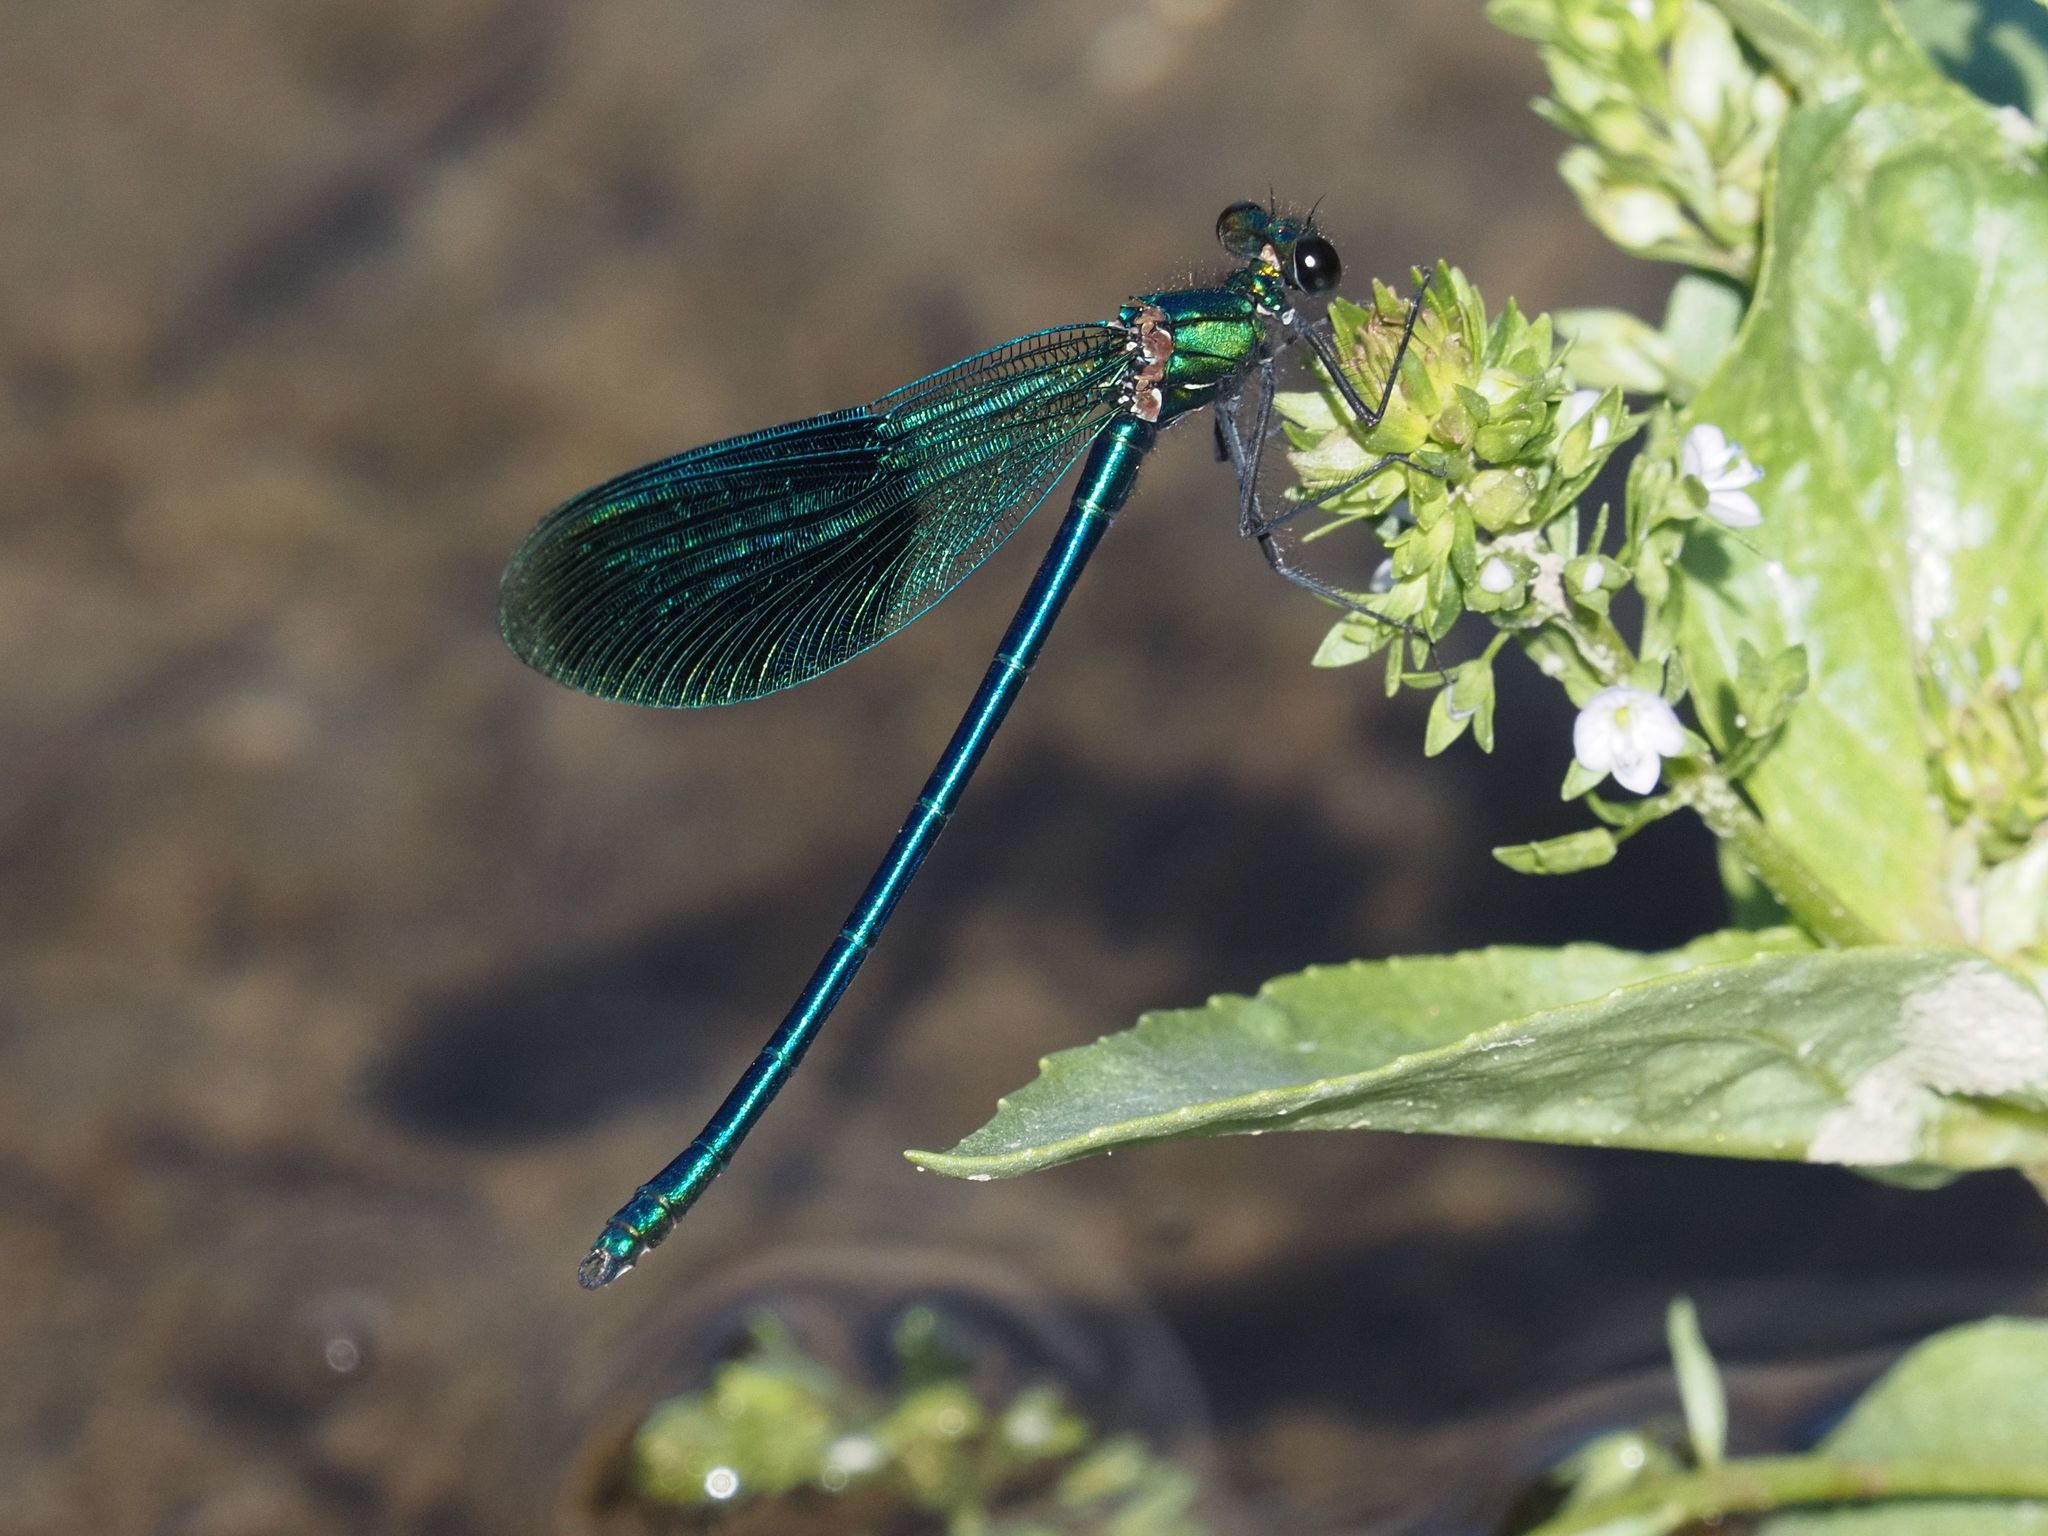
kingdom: Animalia
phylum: Arthropoda
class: Insecta
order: Odonata
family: Calopterygidae
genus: Calopteryx
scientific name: Calopteryx splendens
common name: Banded demoiselle
